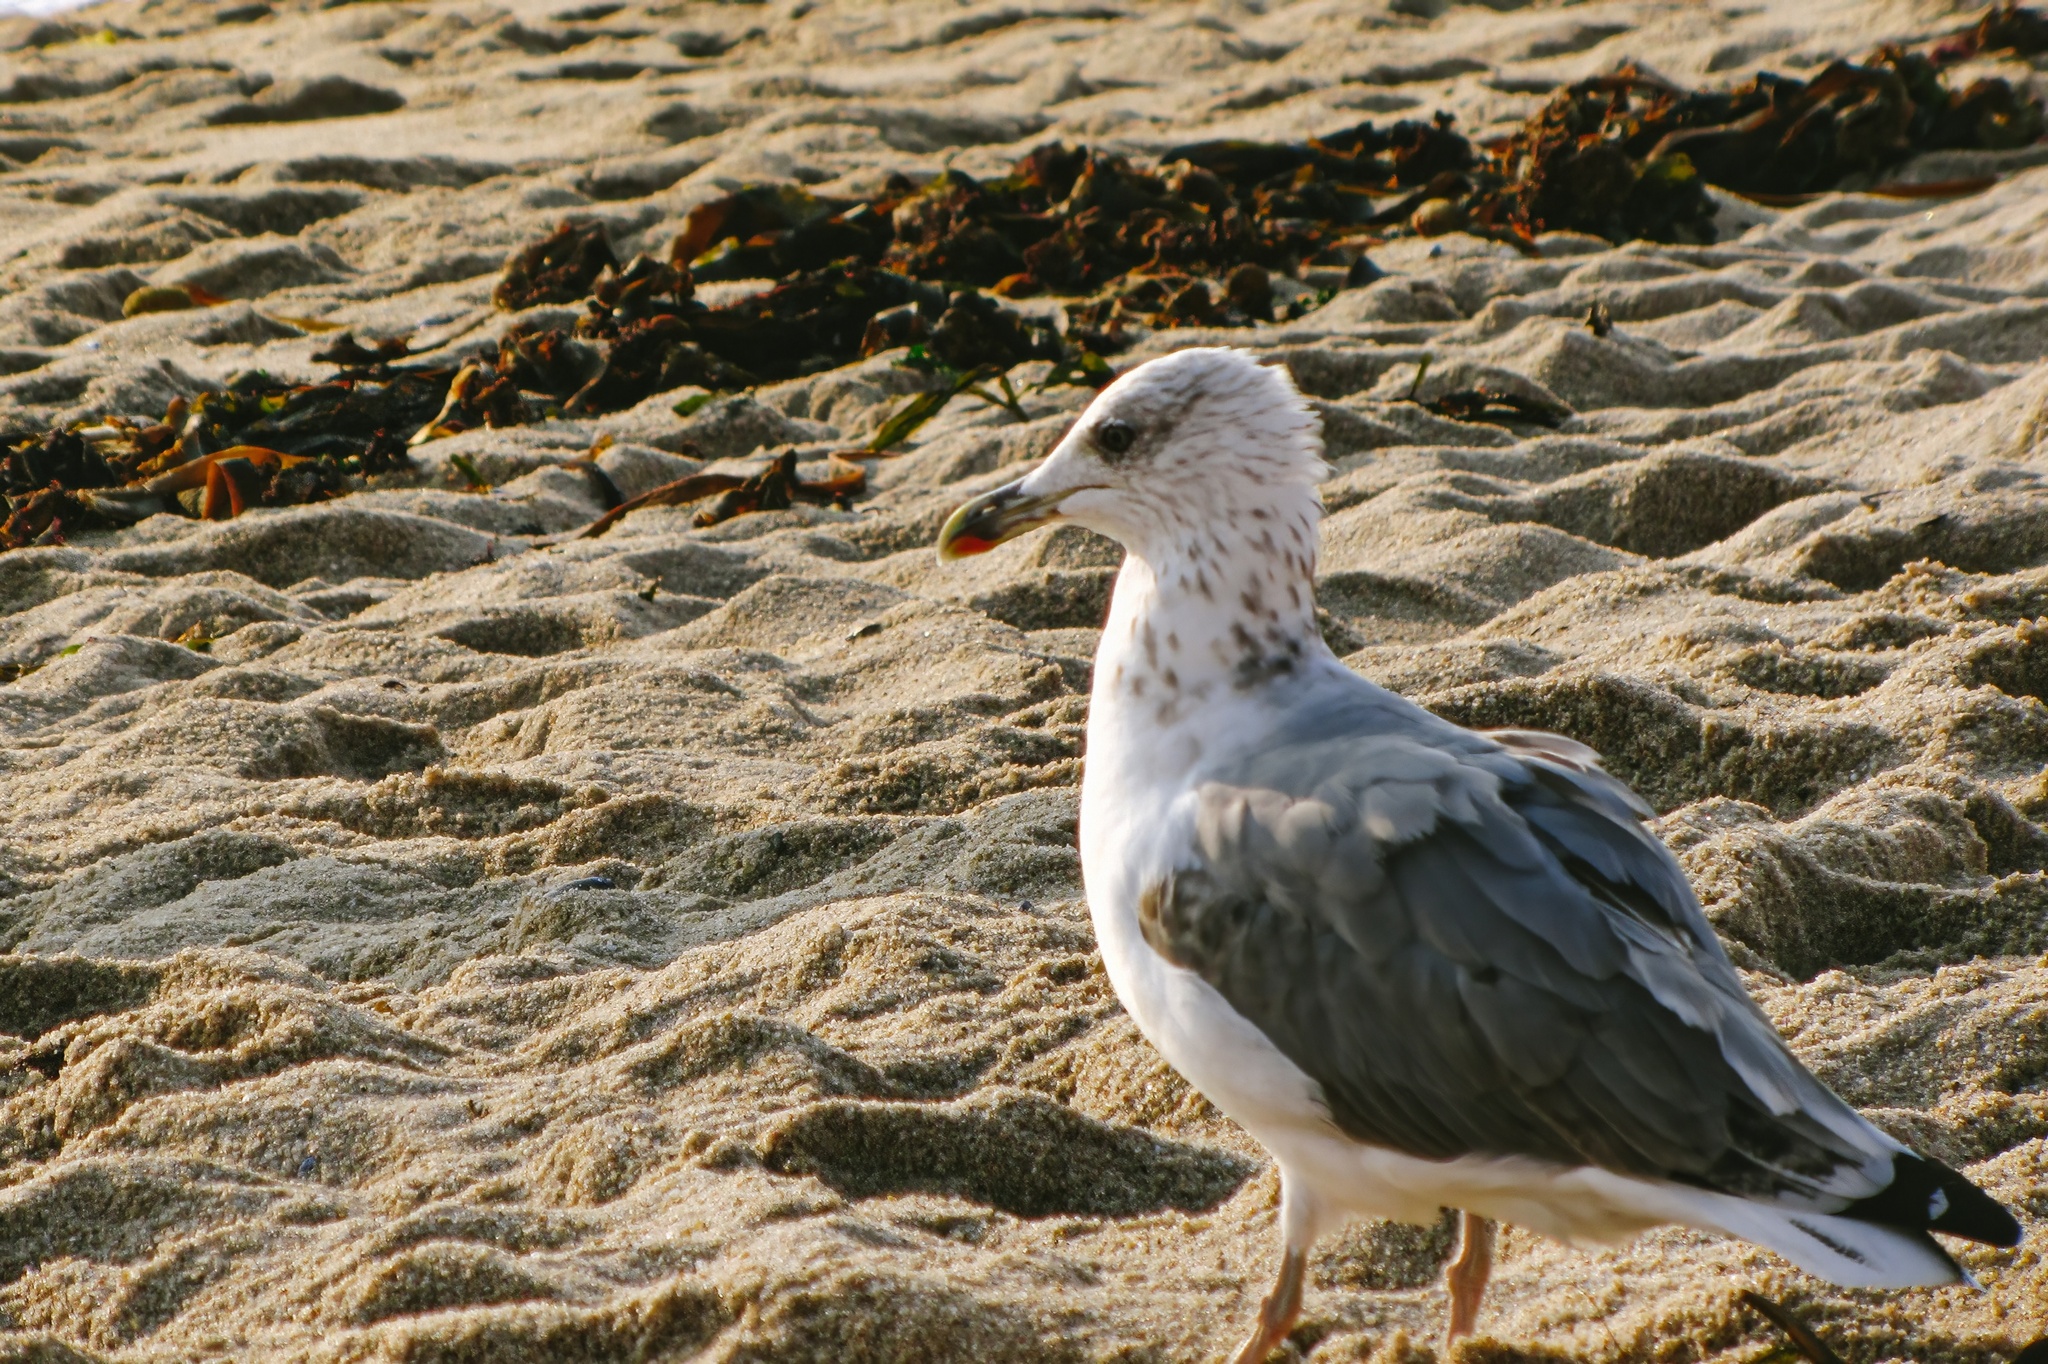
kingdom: Animalia
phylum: Chordata
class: Aves
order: Charadriiformes
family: Laridae
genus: Larus
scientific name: Larus michahellis
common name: Yellow-legged gull
